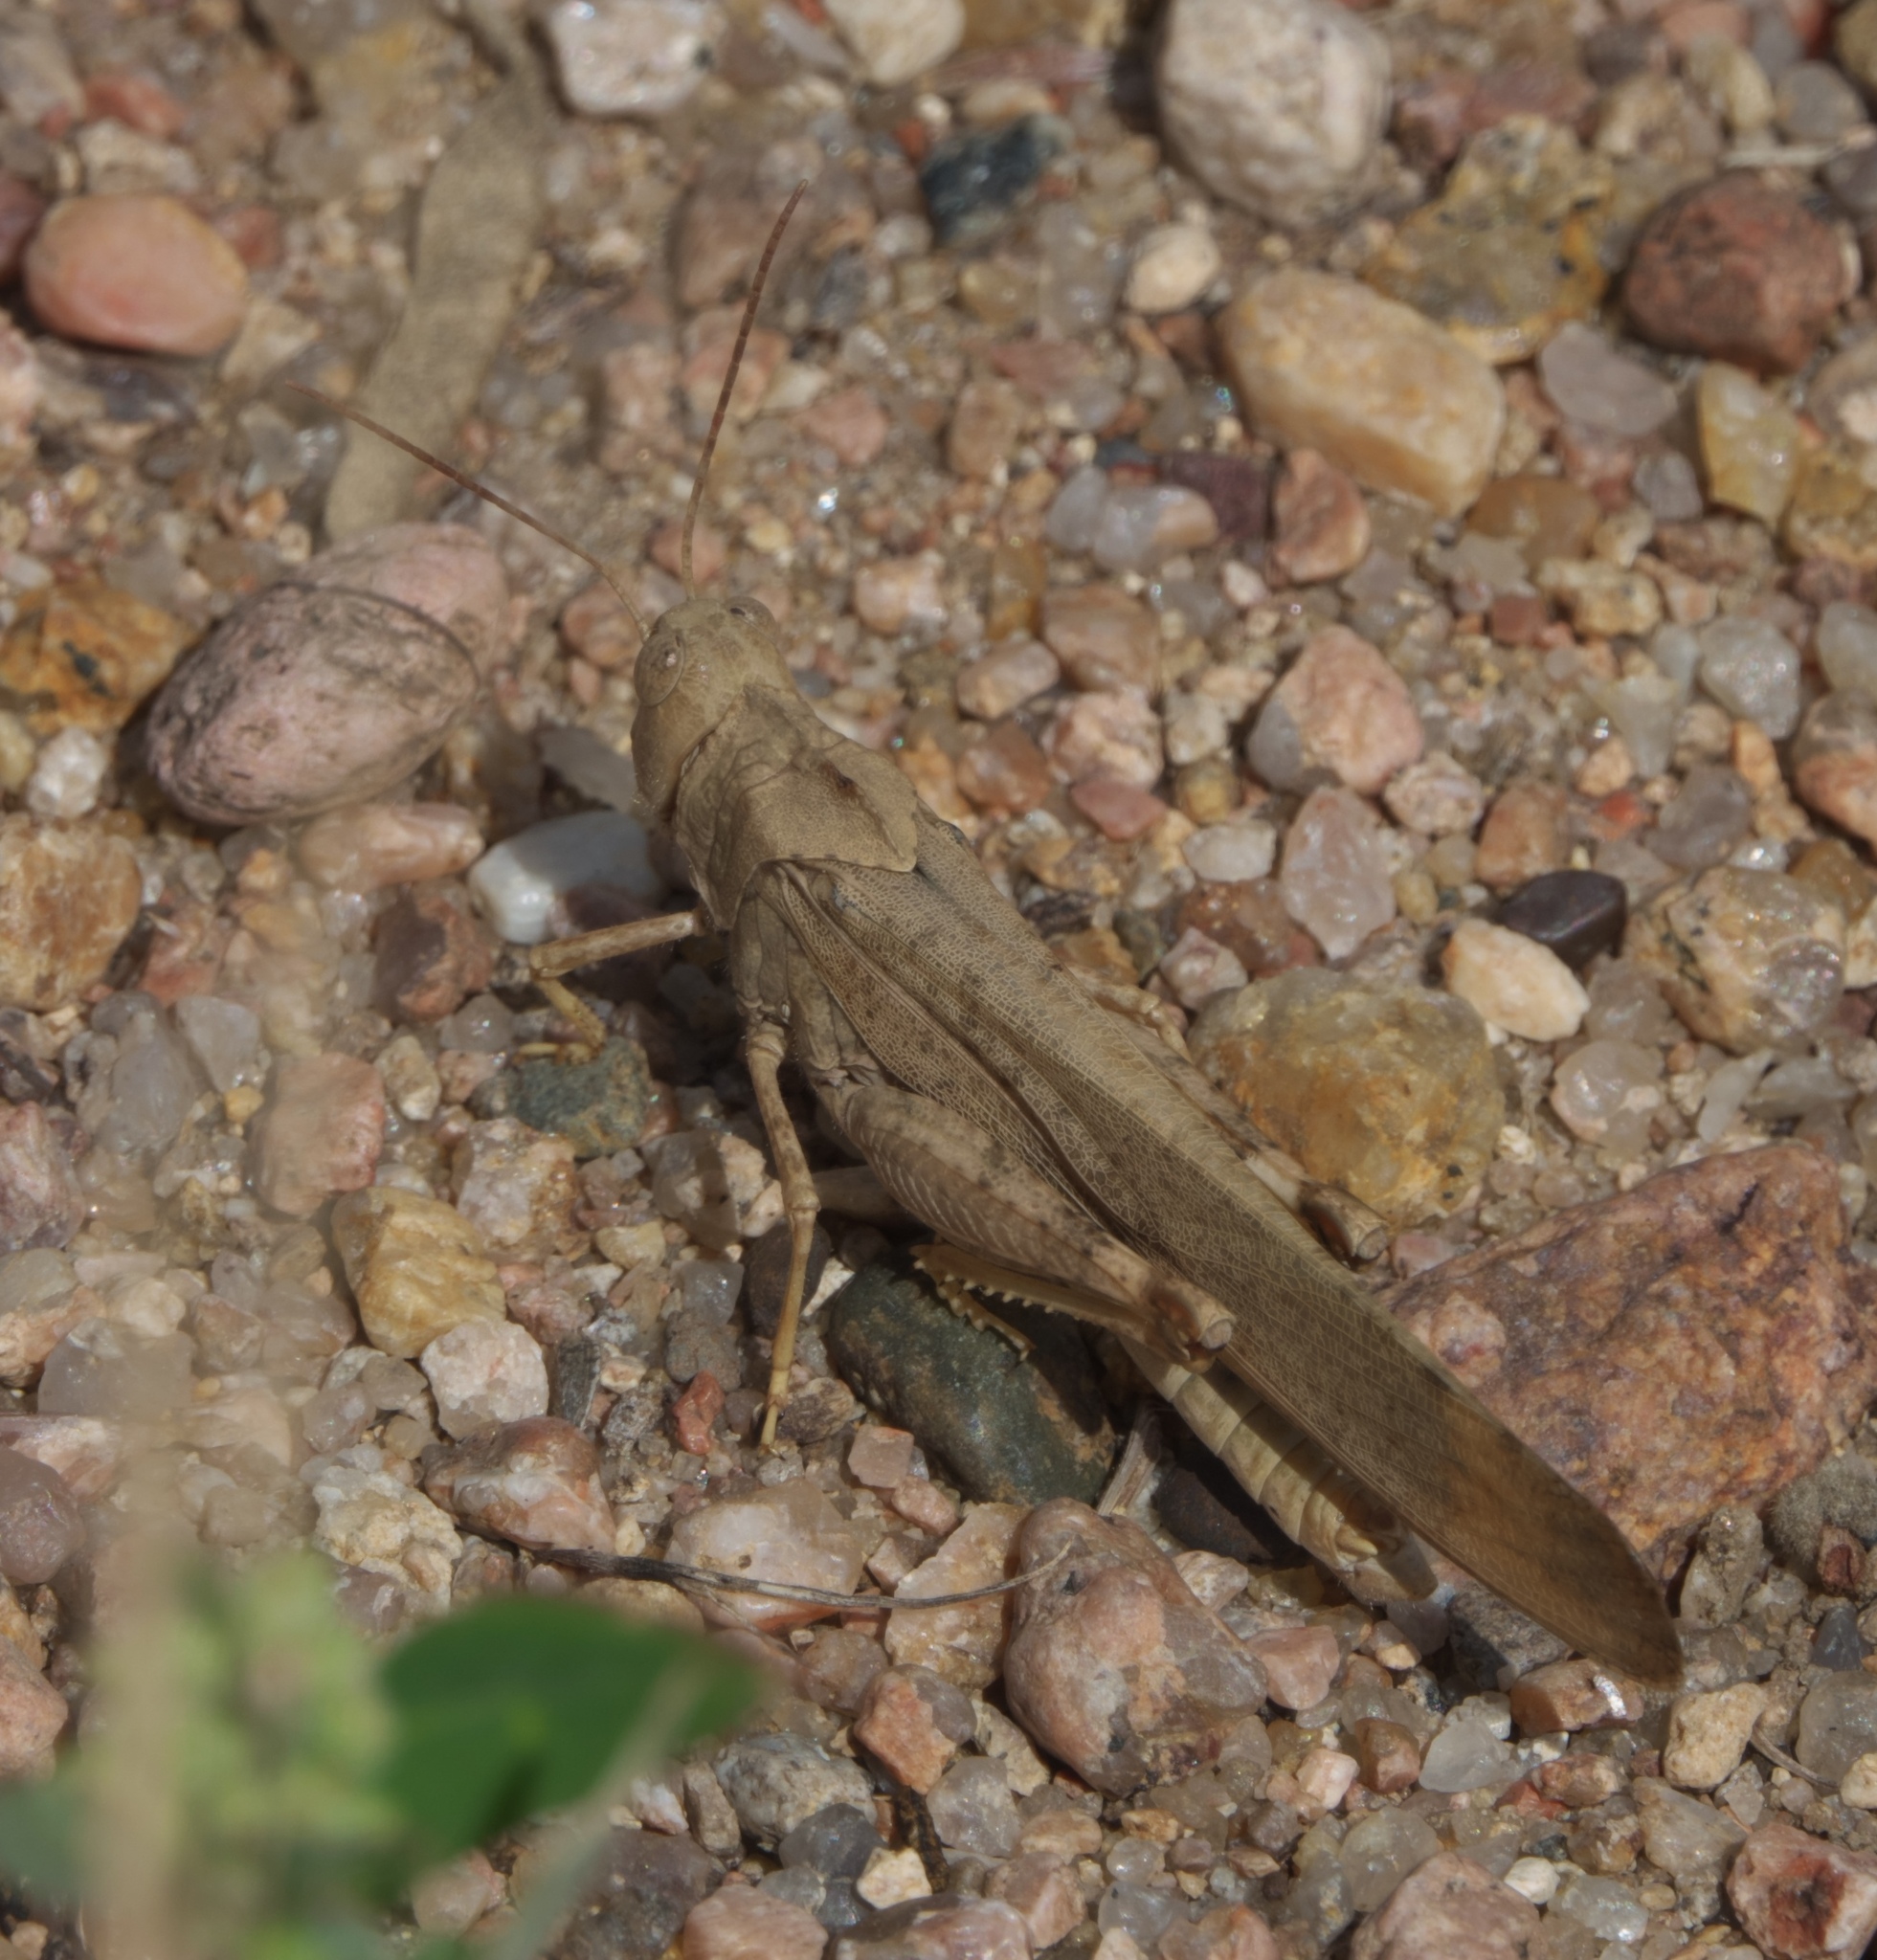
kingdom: Animalia
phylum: Arthropoda
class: Insecta
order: Orthoptera
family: Acrididae
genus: Dissosteira
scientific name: Dissosteira carolina
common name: Carolina grasshopper
